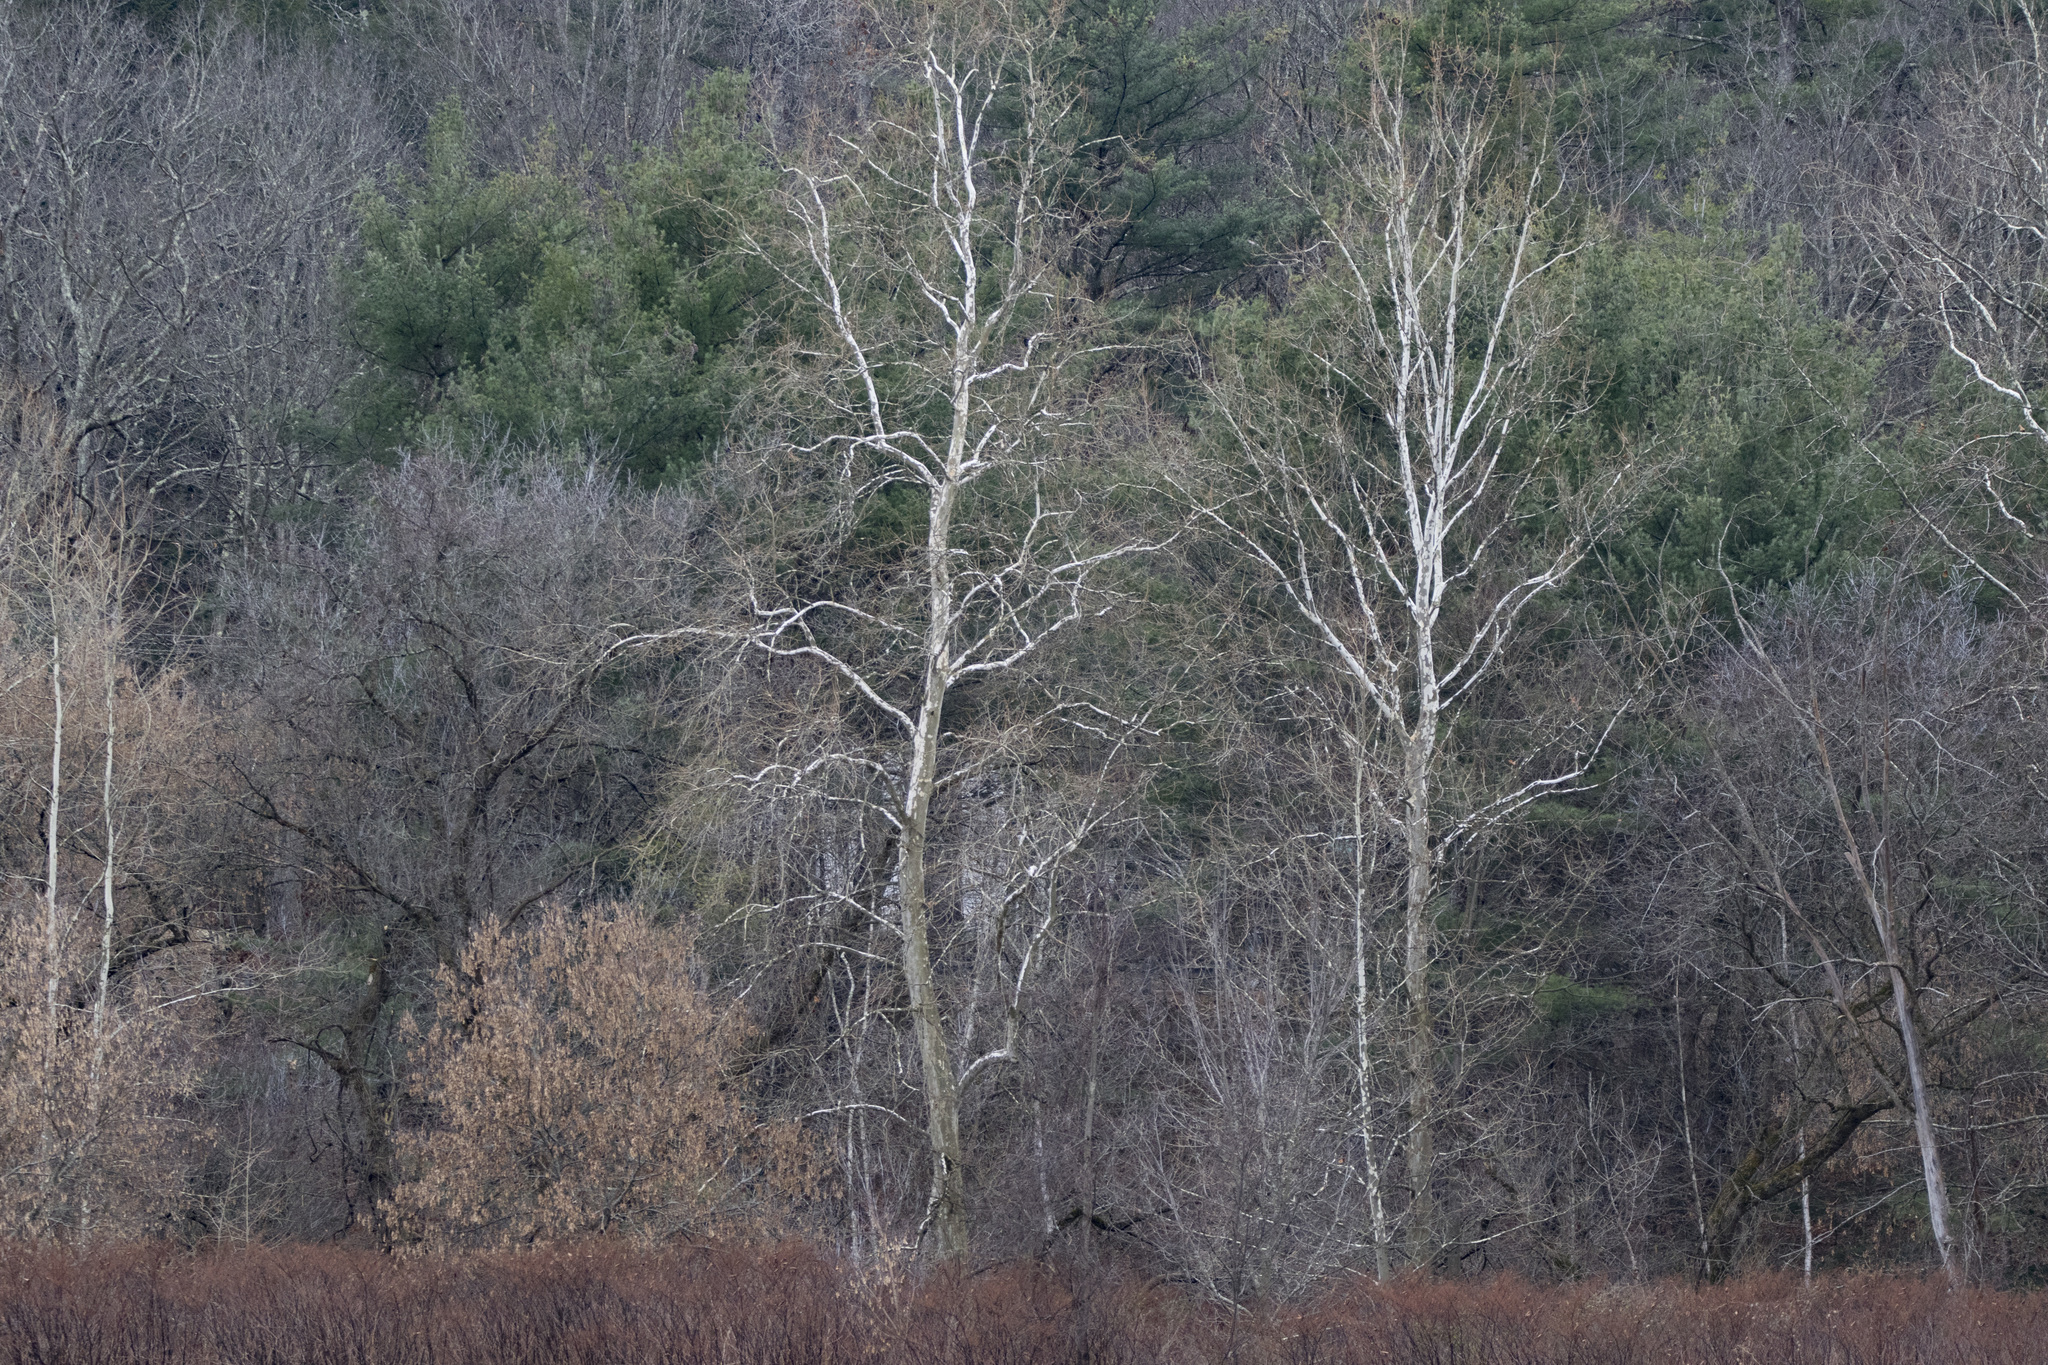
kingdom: Plantae
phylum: Tracheophyta
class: Pinopsida
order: Pinales
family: Pinaceae
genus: Pinus
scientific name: Pinus strobus
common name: Weymouth pine
